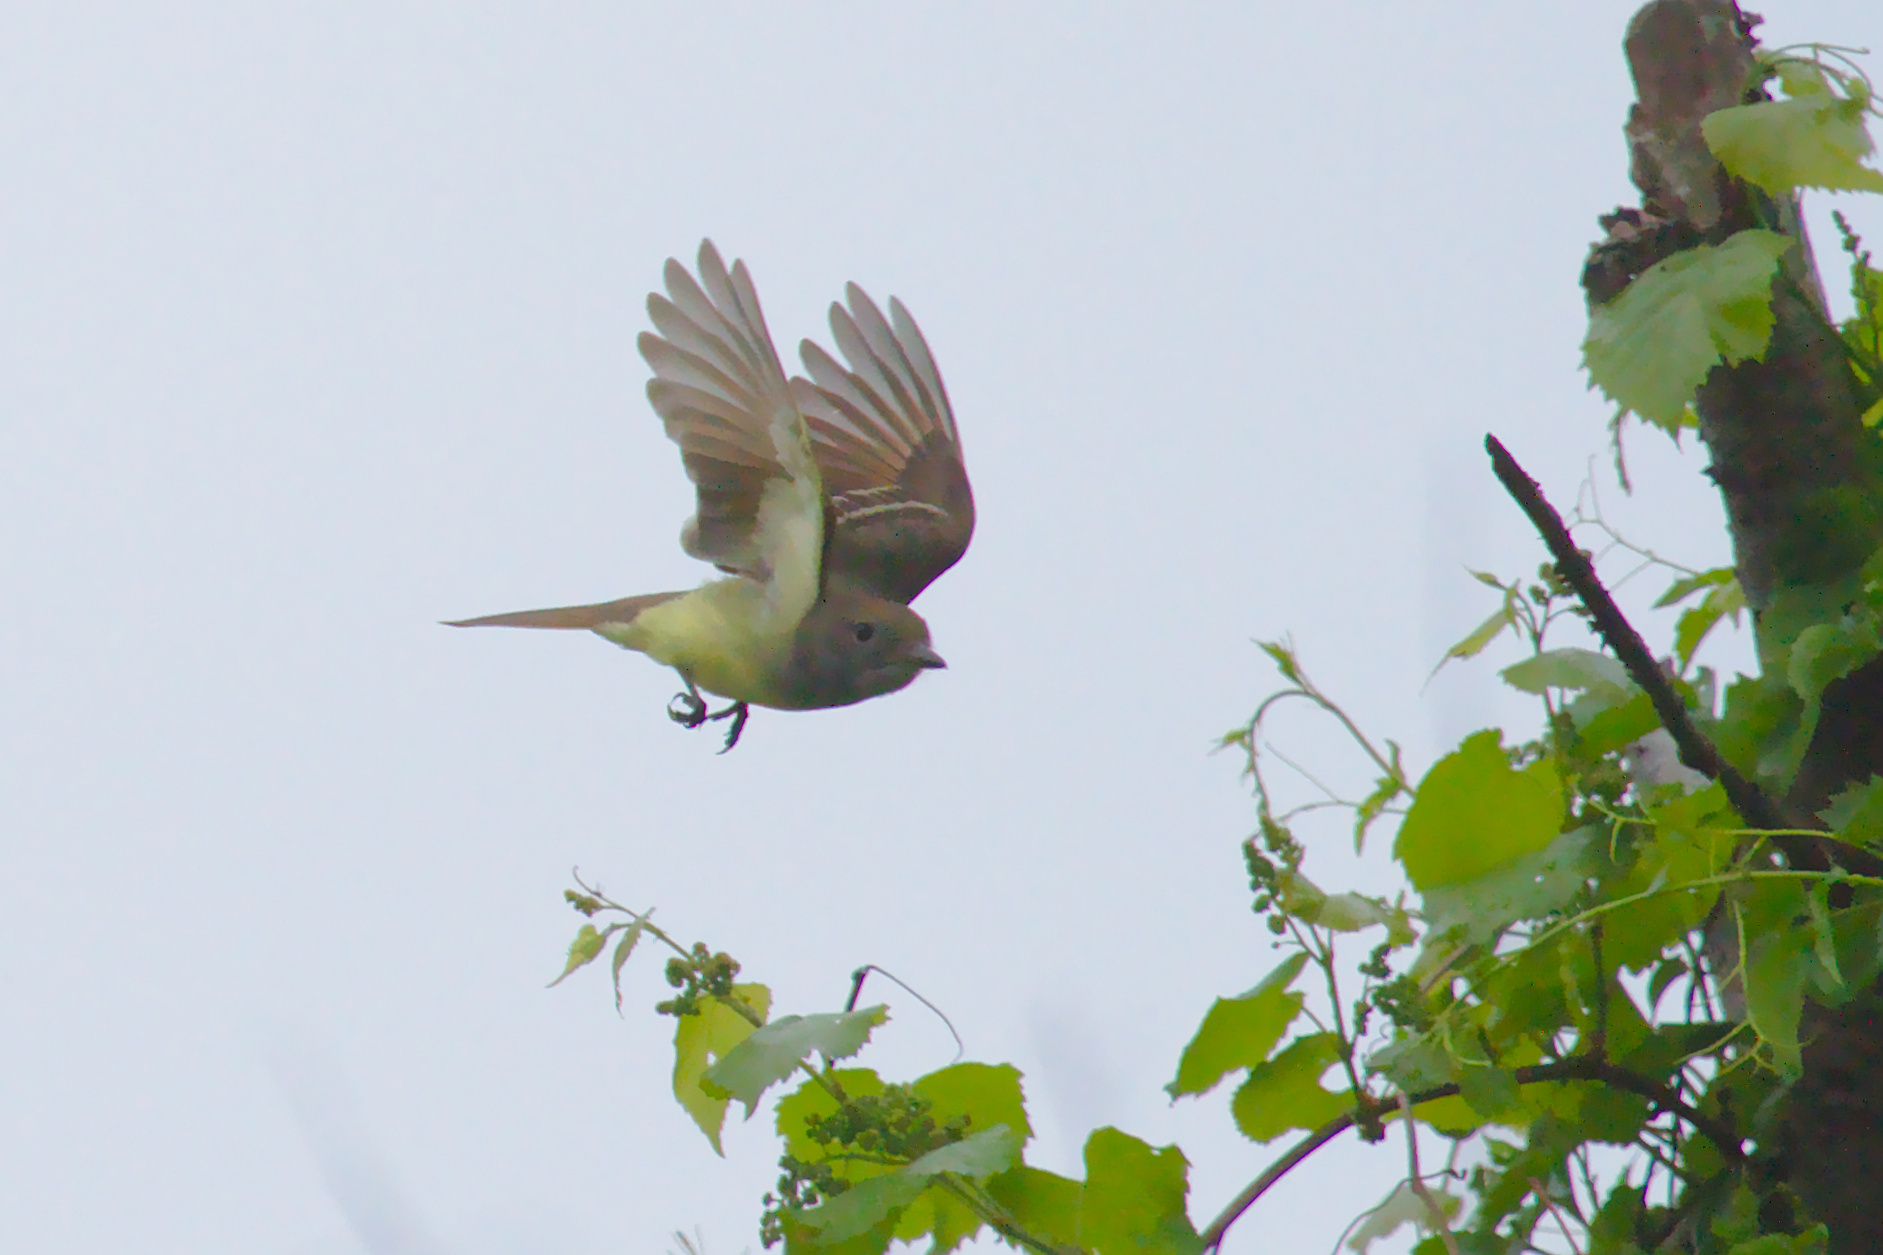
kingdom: Animalia
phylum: Chordata
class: Aves
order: Passeriformes
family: Tyrannidae
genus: Myiarchus
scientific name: Myiarchus crinitus
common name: Great crested flycatcher
